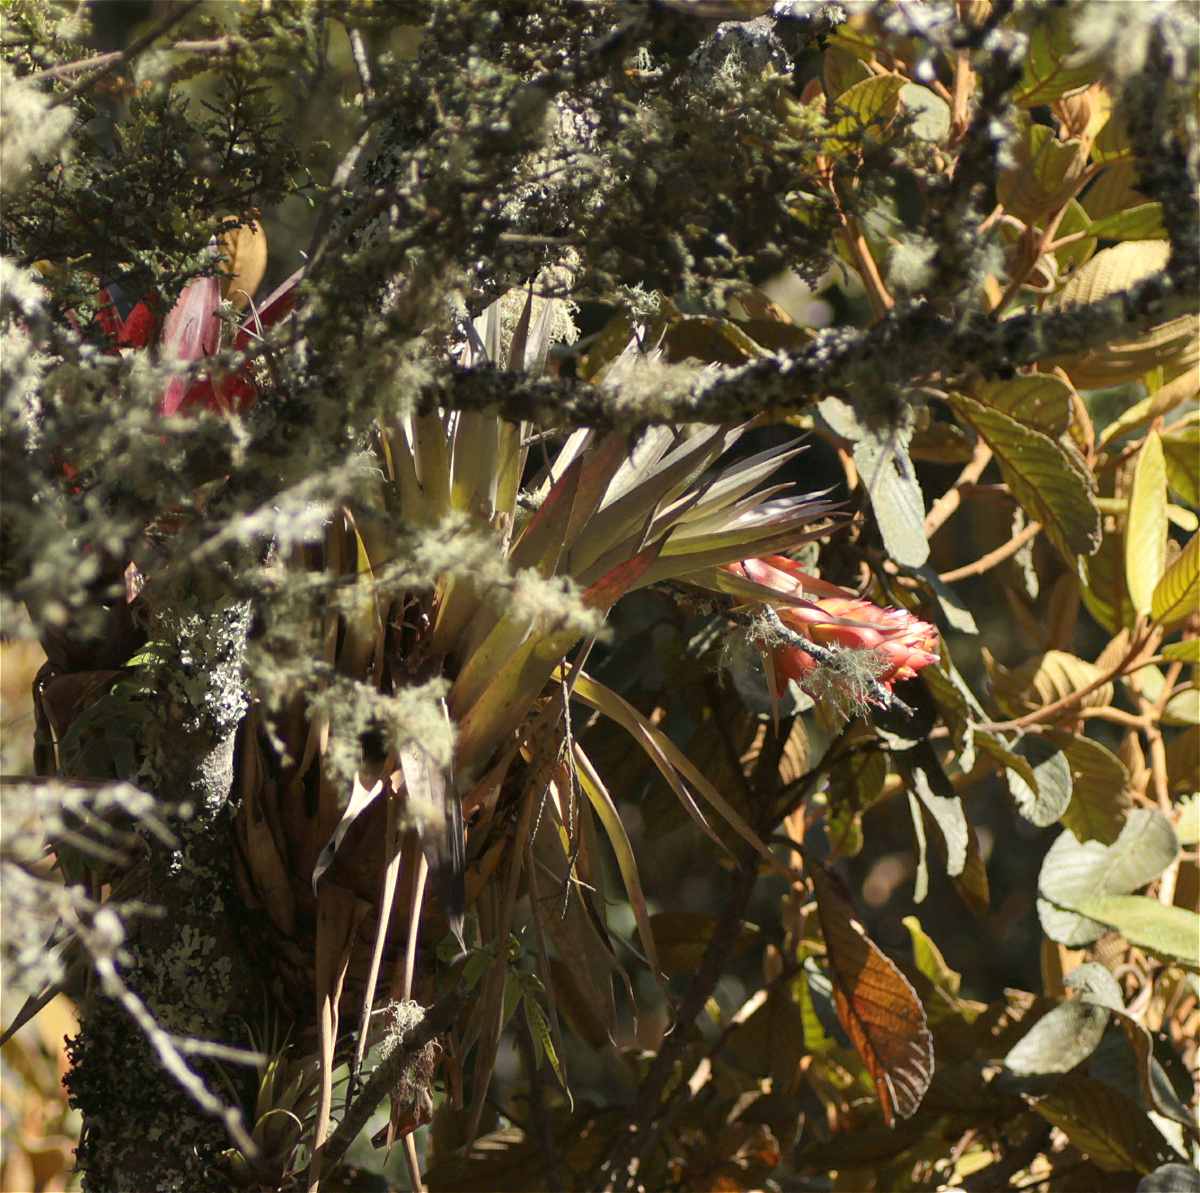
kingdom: Plantae
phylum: Tracheophyta
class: Liliopsida
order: Poales
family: Bromeliaceae
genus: Tillandsia
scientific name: Tillandsia turneri
